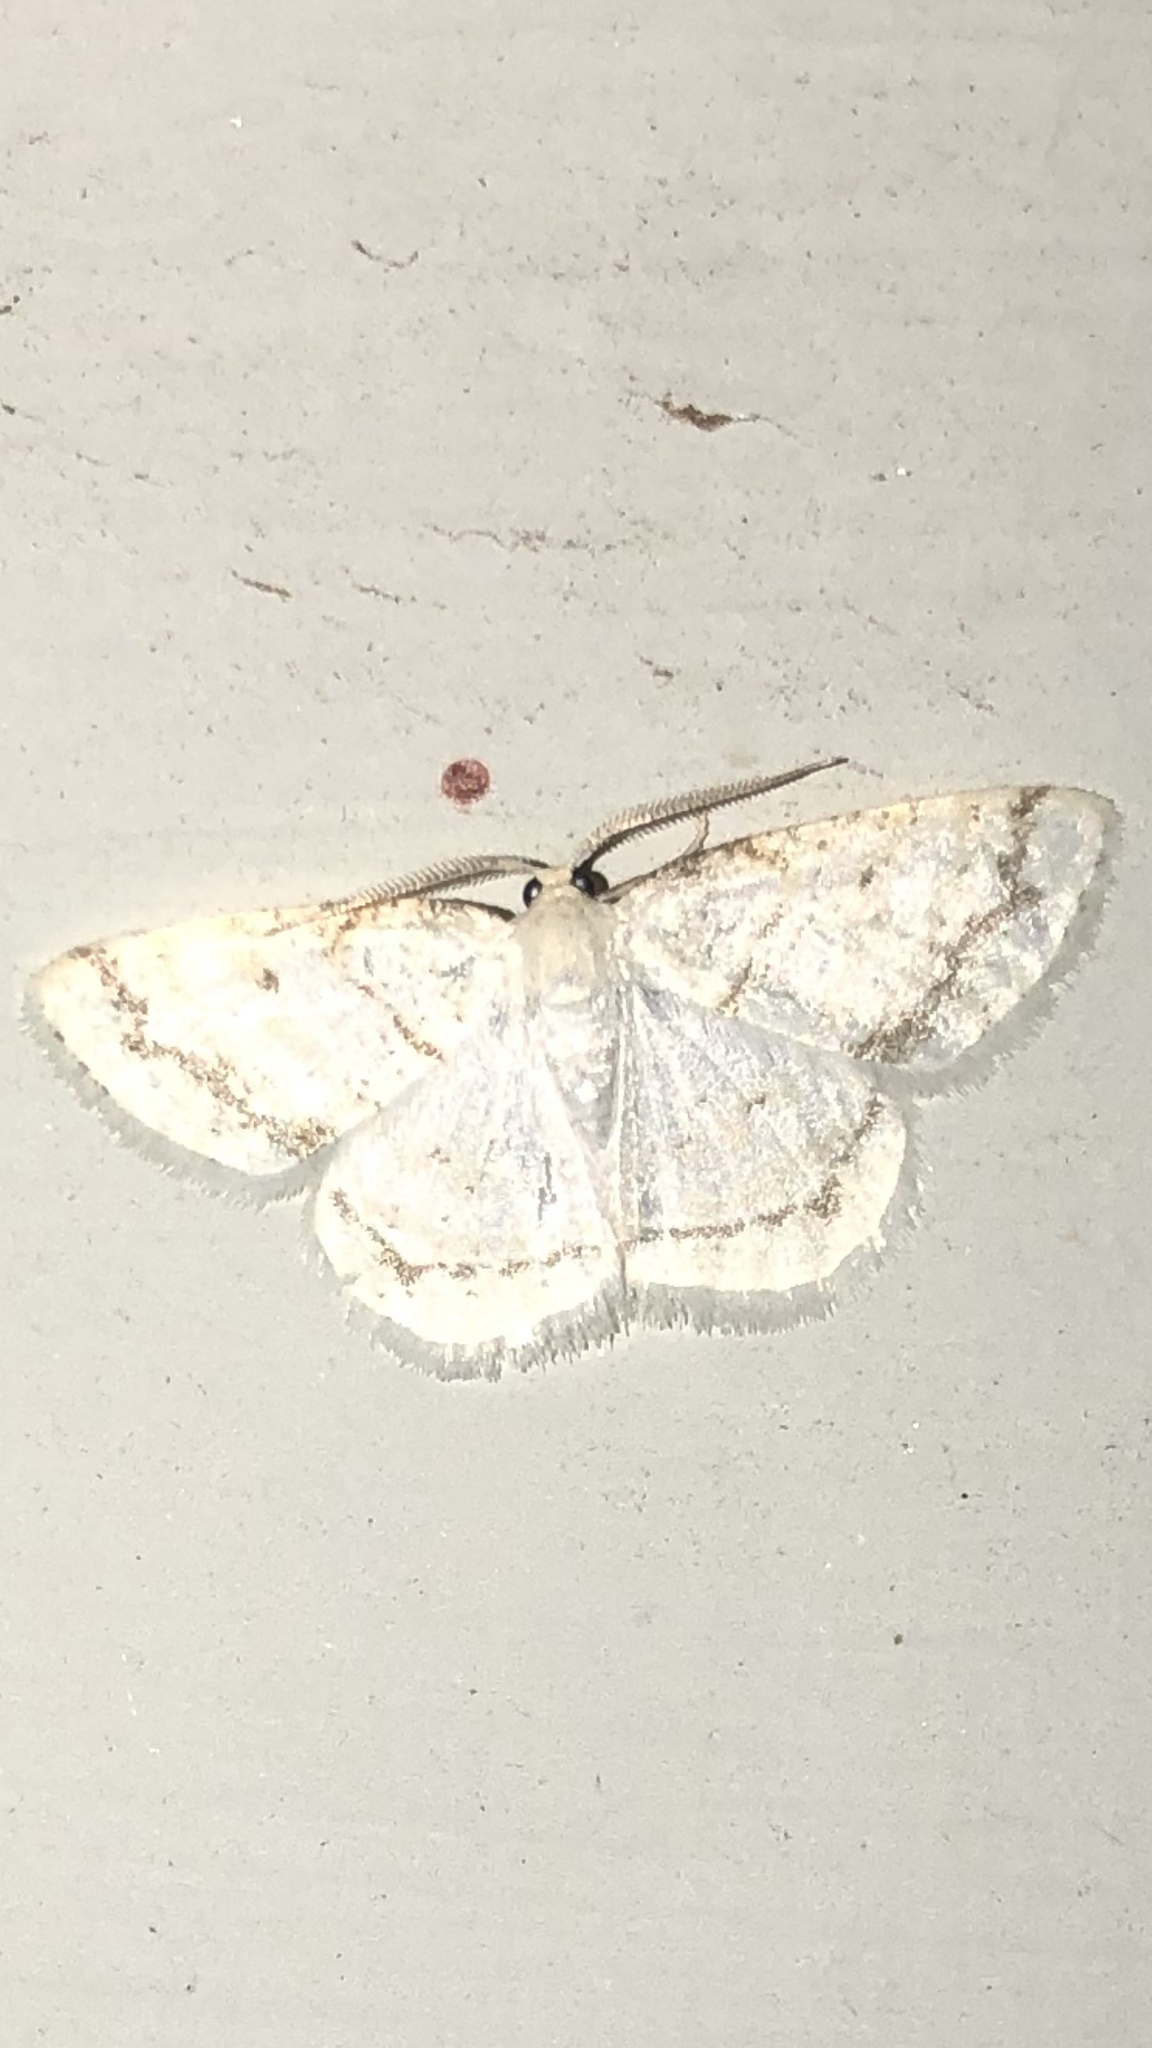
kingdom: Animalia
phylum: Arthropoda
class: Insecta
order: Lepidoptera
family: Geometridae
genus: Protitame
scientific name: Protitame virginalis
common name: Virgin moth
